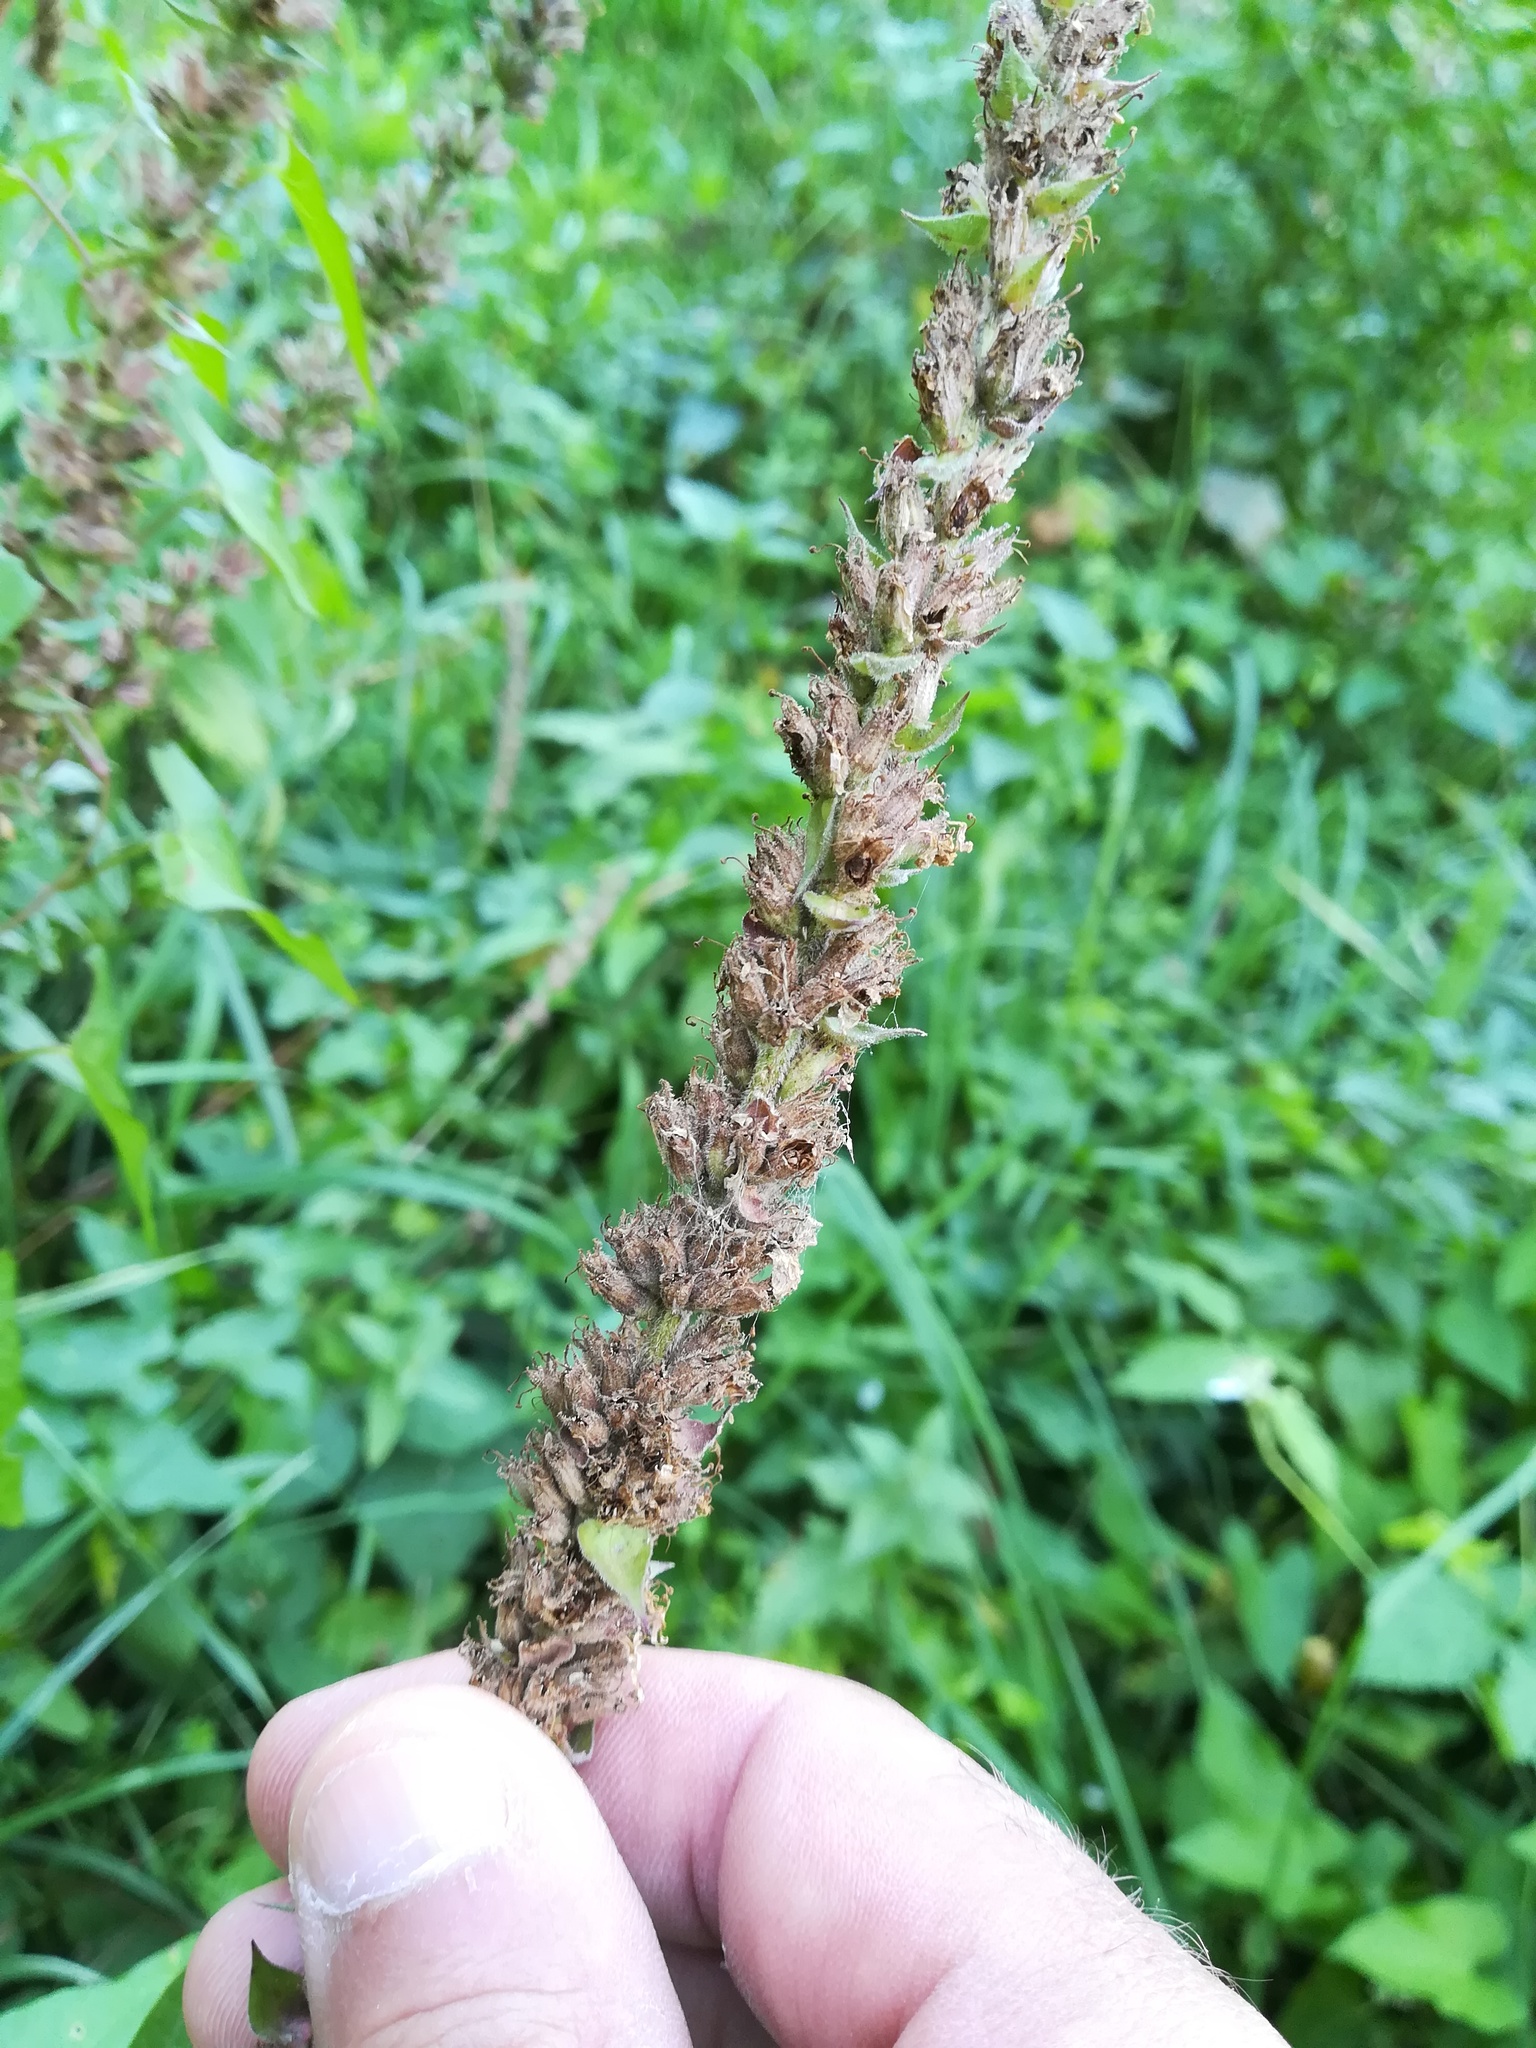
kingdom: Plantae
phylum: Tracheophyta
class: Magnoliopsida
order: Myrtales
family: Lythraceae
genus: Lythrum
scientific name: Lythrum salicaria
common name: Purple loosestrife
